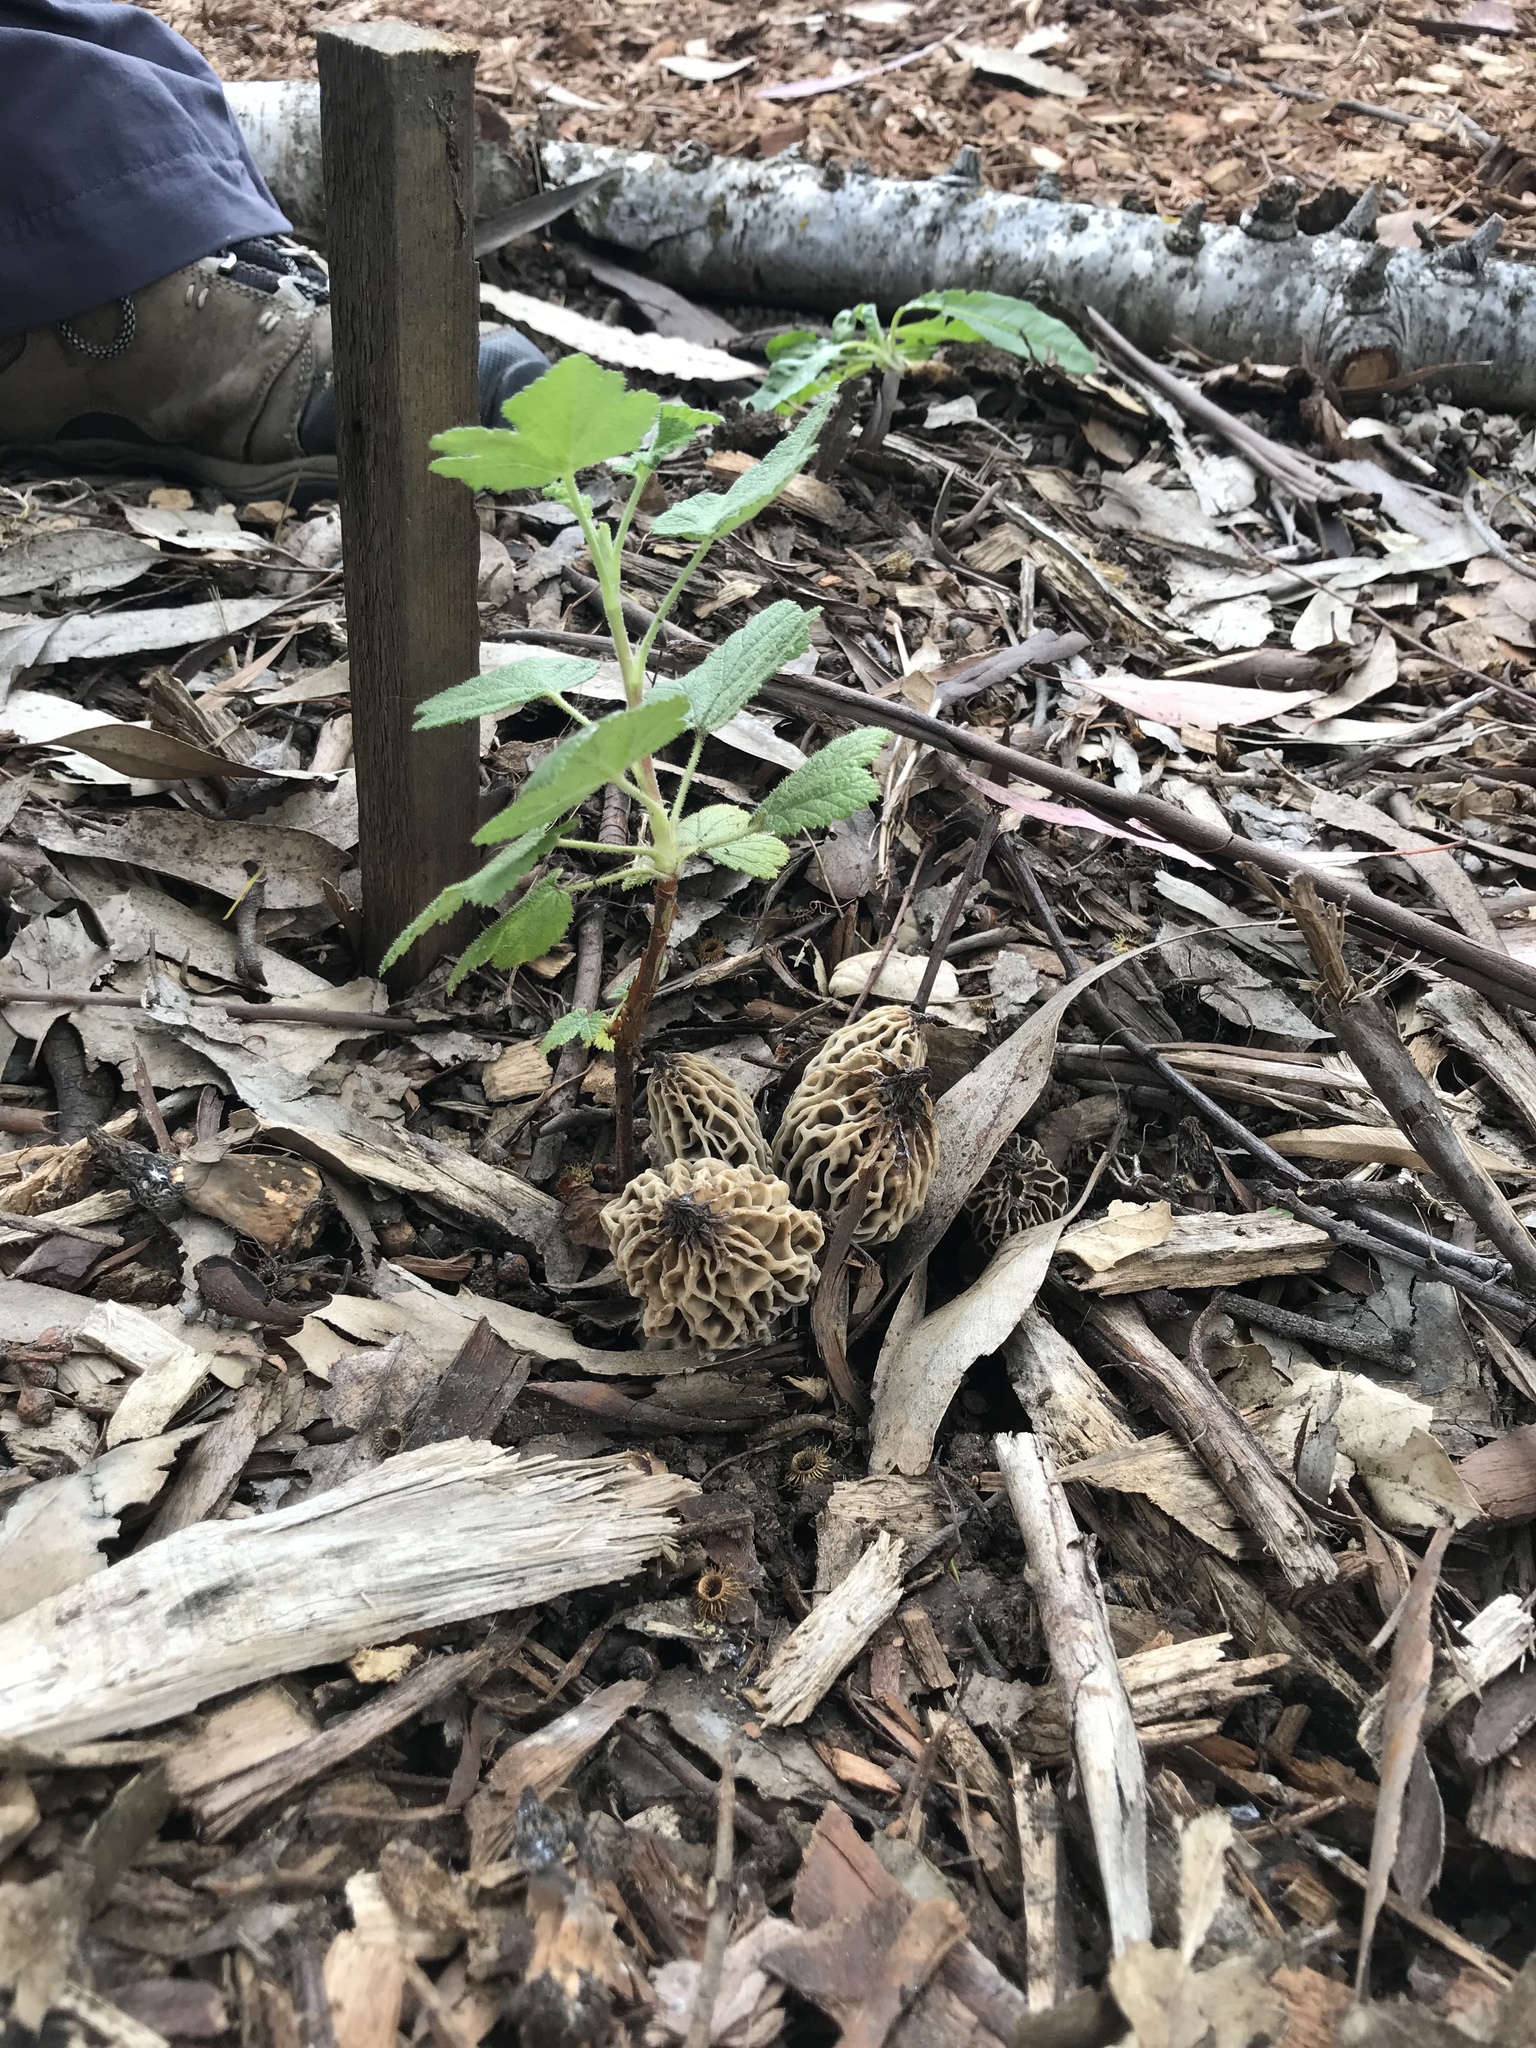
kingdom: Fungi
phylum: Ascomycota
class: Pezizomycetes
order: Pezizales
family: Morchellaceae
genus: Morchella
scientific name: Morchella rufobrunnea
